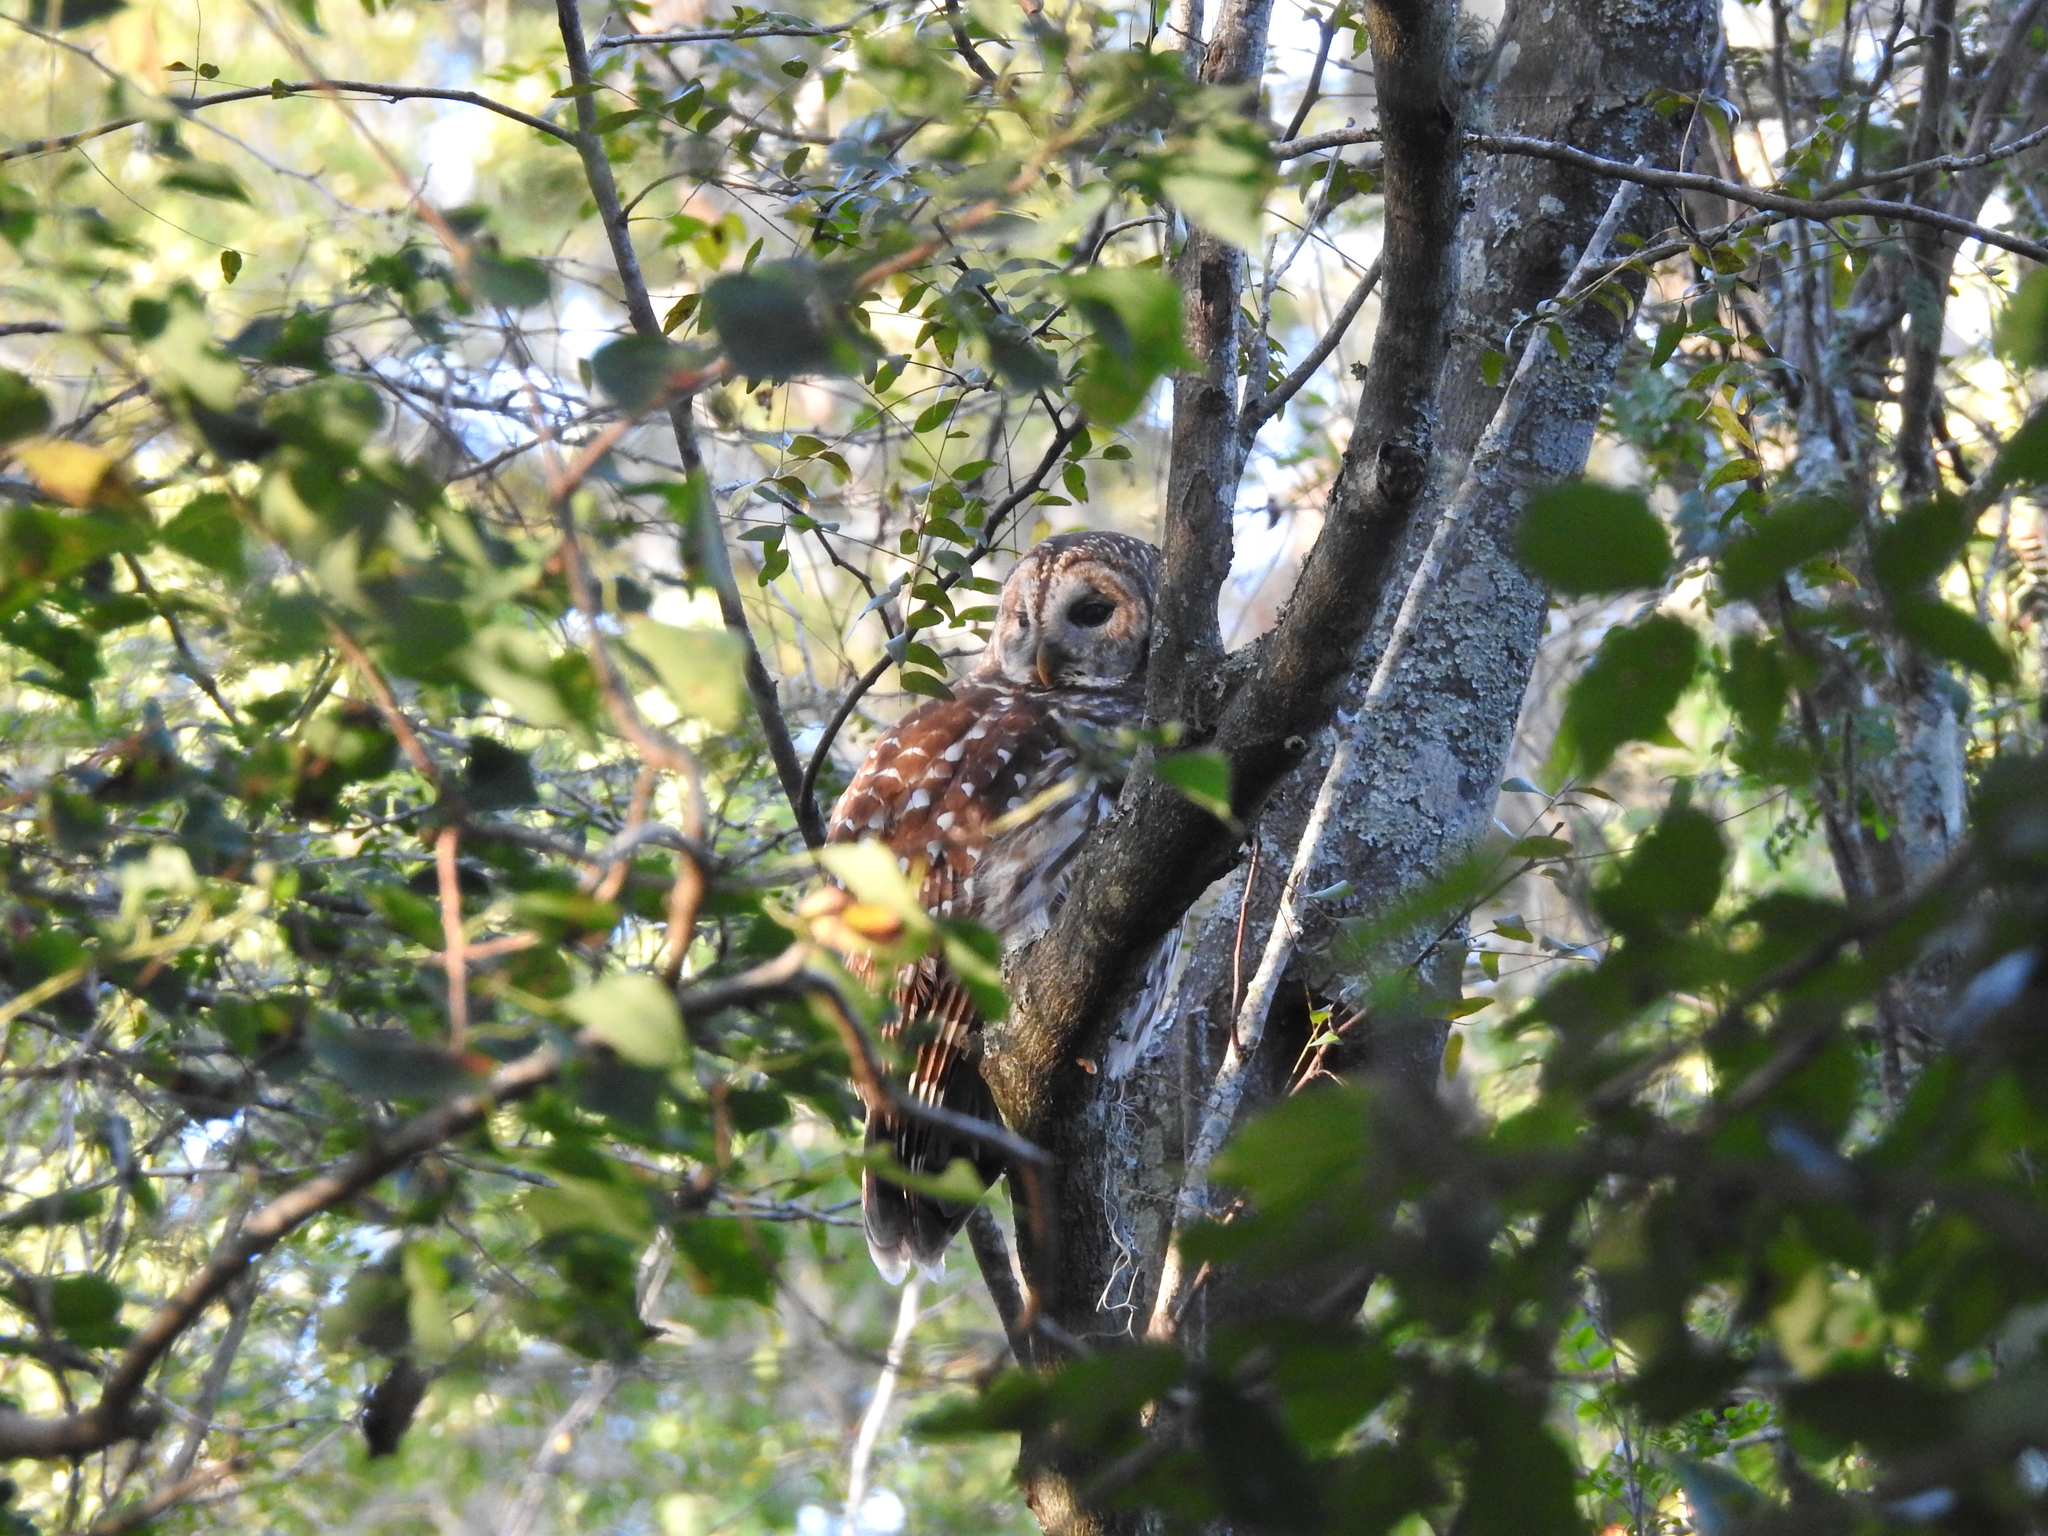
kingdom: Animalia
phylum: Chordata
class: Aves
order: Strigiformes
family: Strigidae
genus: Strix
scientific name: Strix varia
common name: Barred owl
